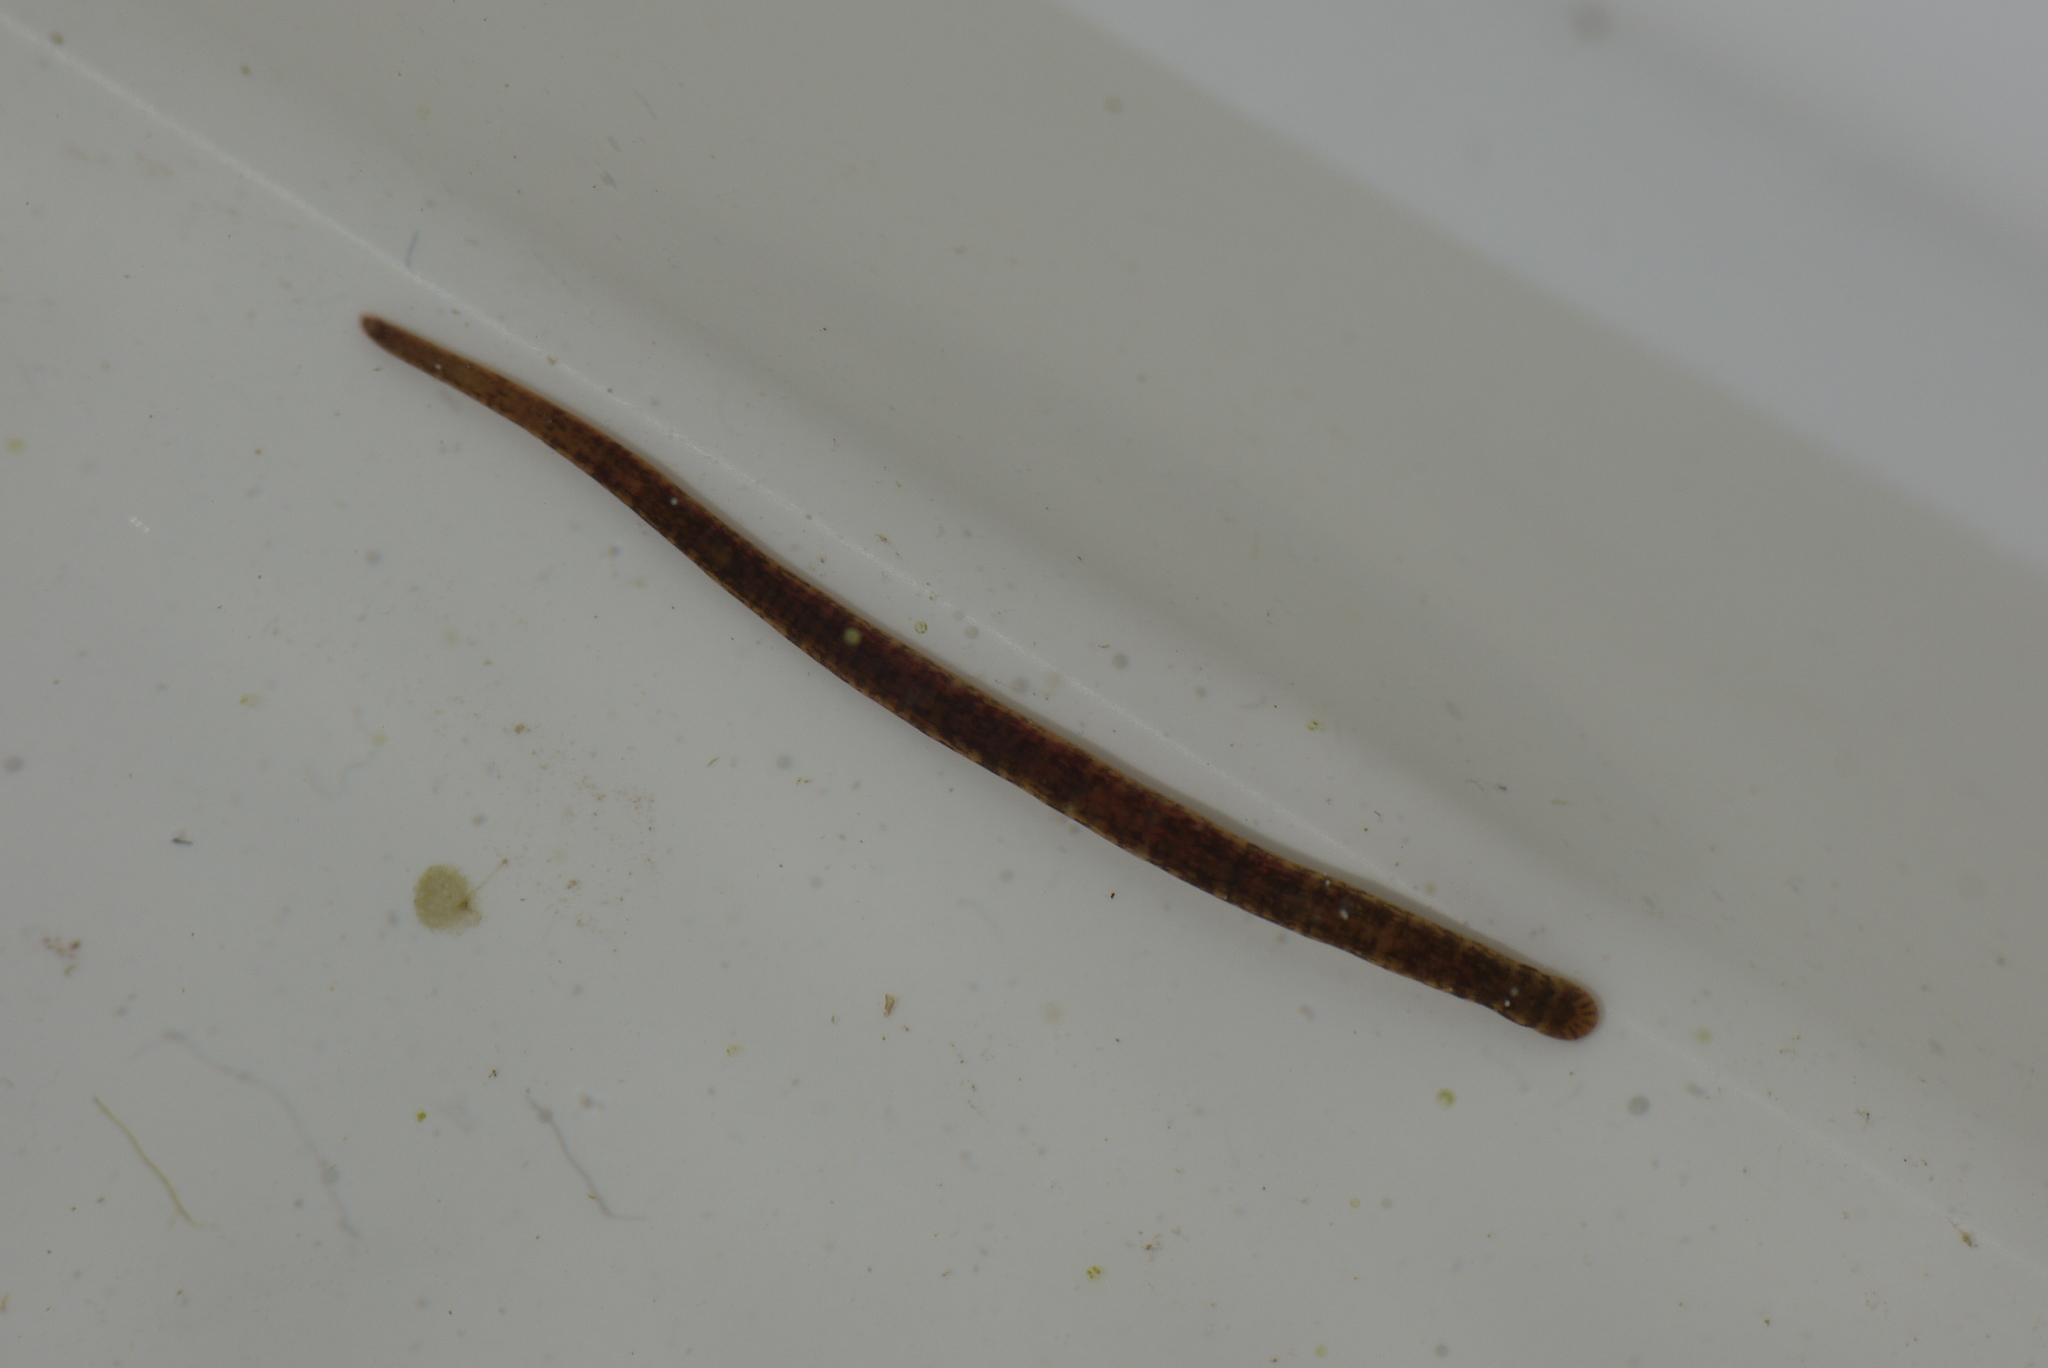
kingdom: Animalia
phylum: Annelida
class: Clitellata
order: Arhynchobdellida
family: Erpobdellidae
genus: Erpobdella
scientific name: Erpobdella octoculata
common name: Leeches
